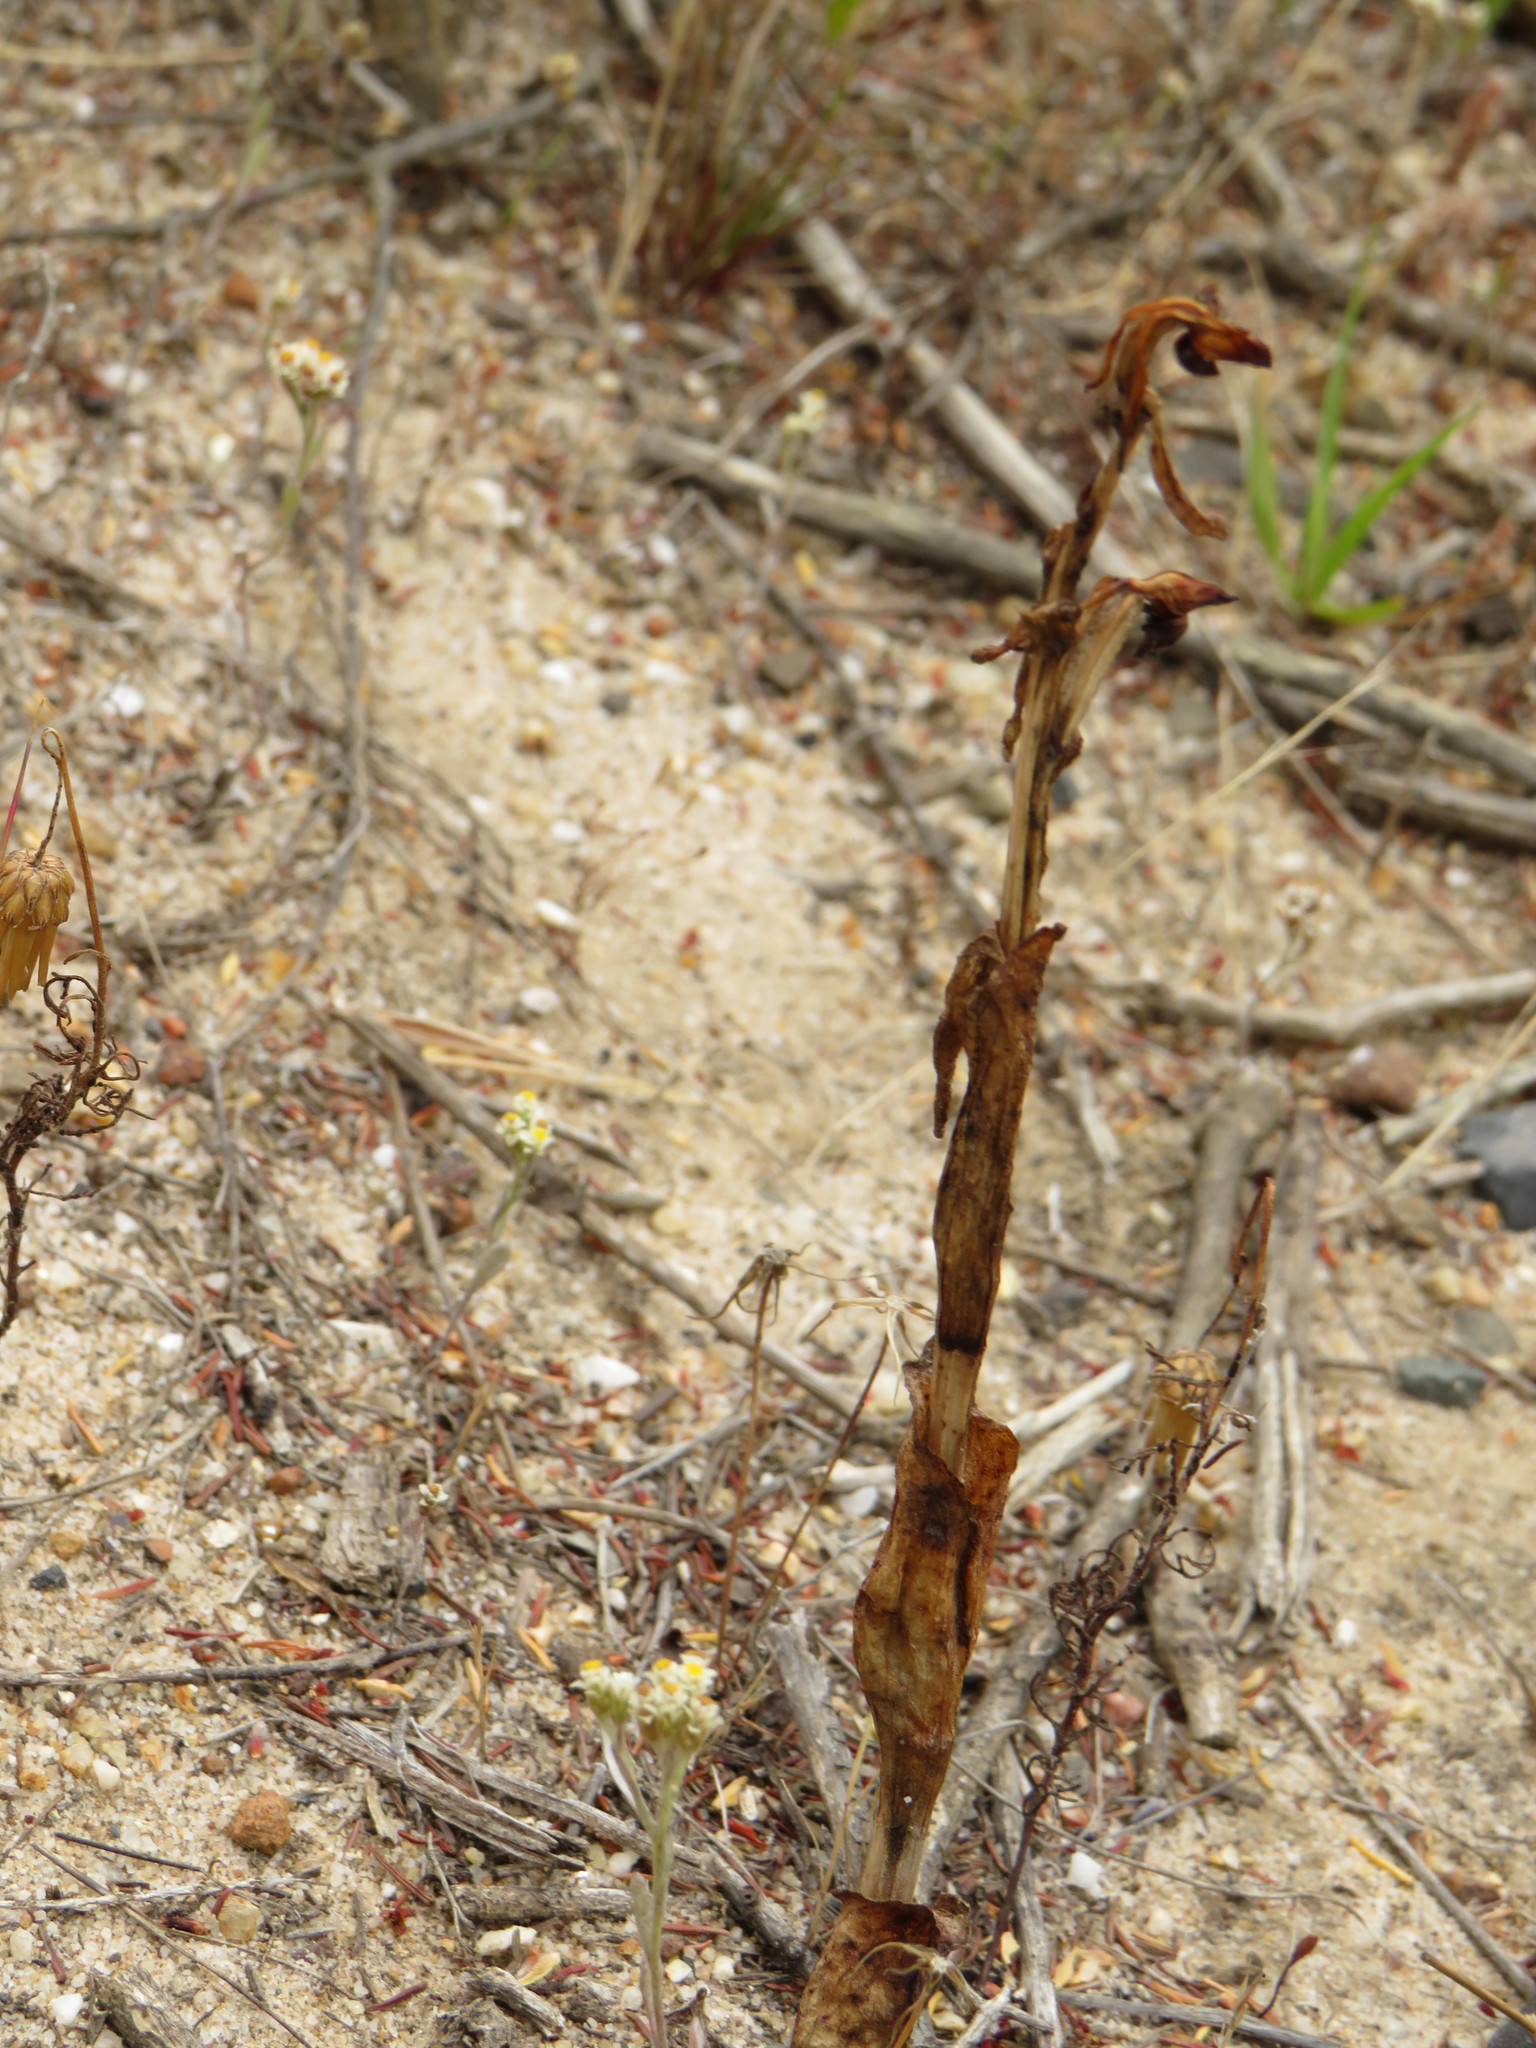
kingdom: Plantae
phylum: Tracheophyta
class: Liliopsida
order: Asparagales
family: Orchidaceae
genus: Satyrium
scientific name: Satyrium bicorne
